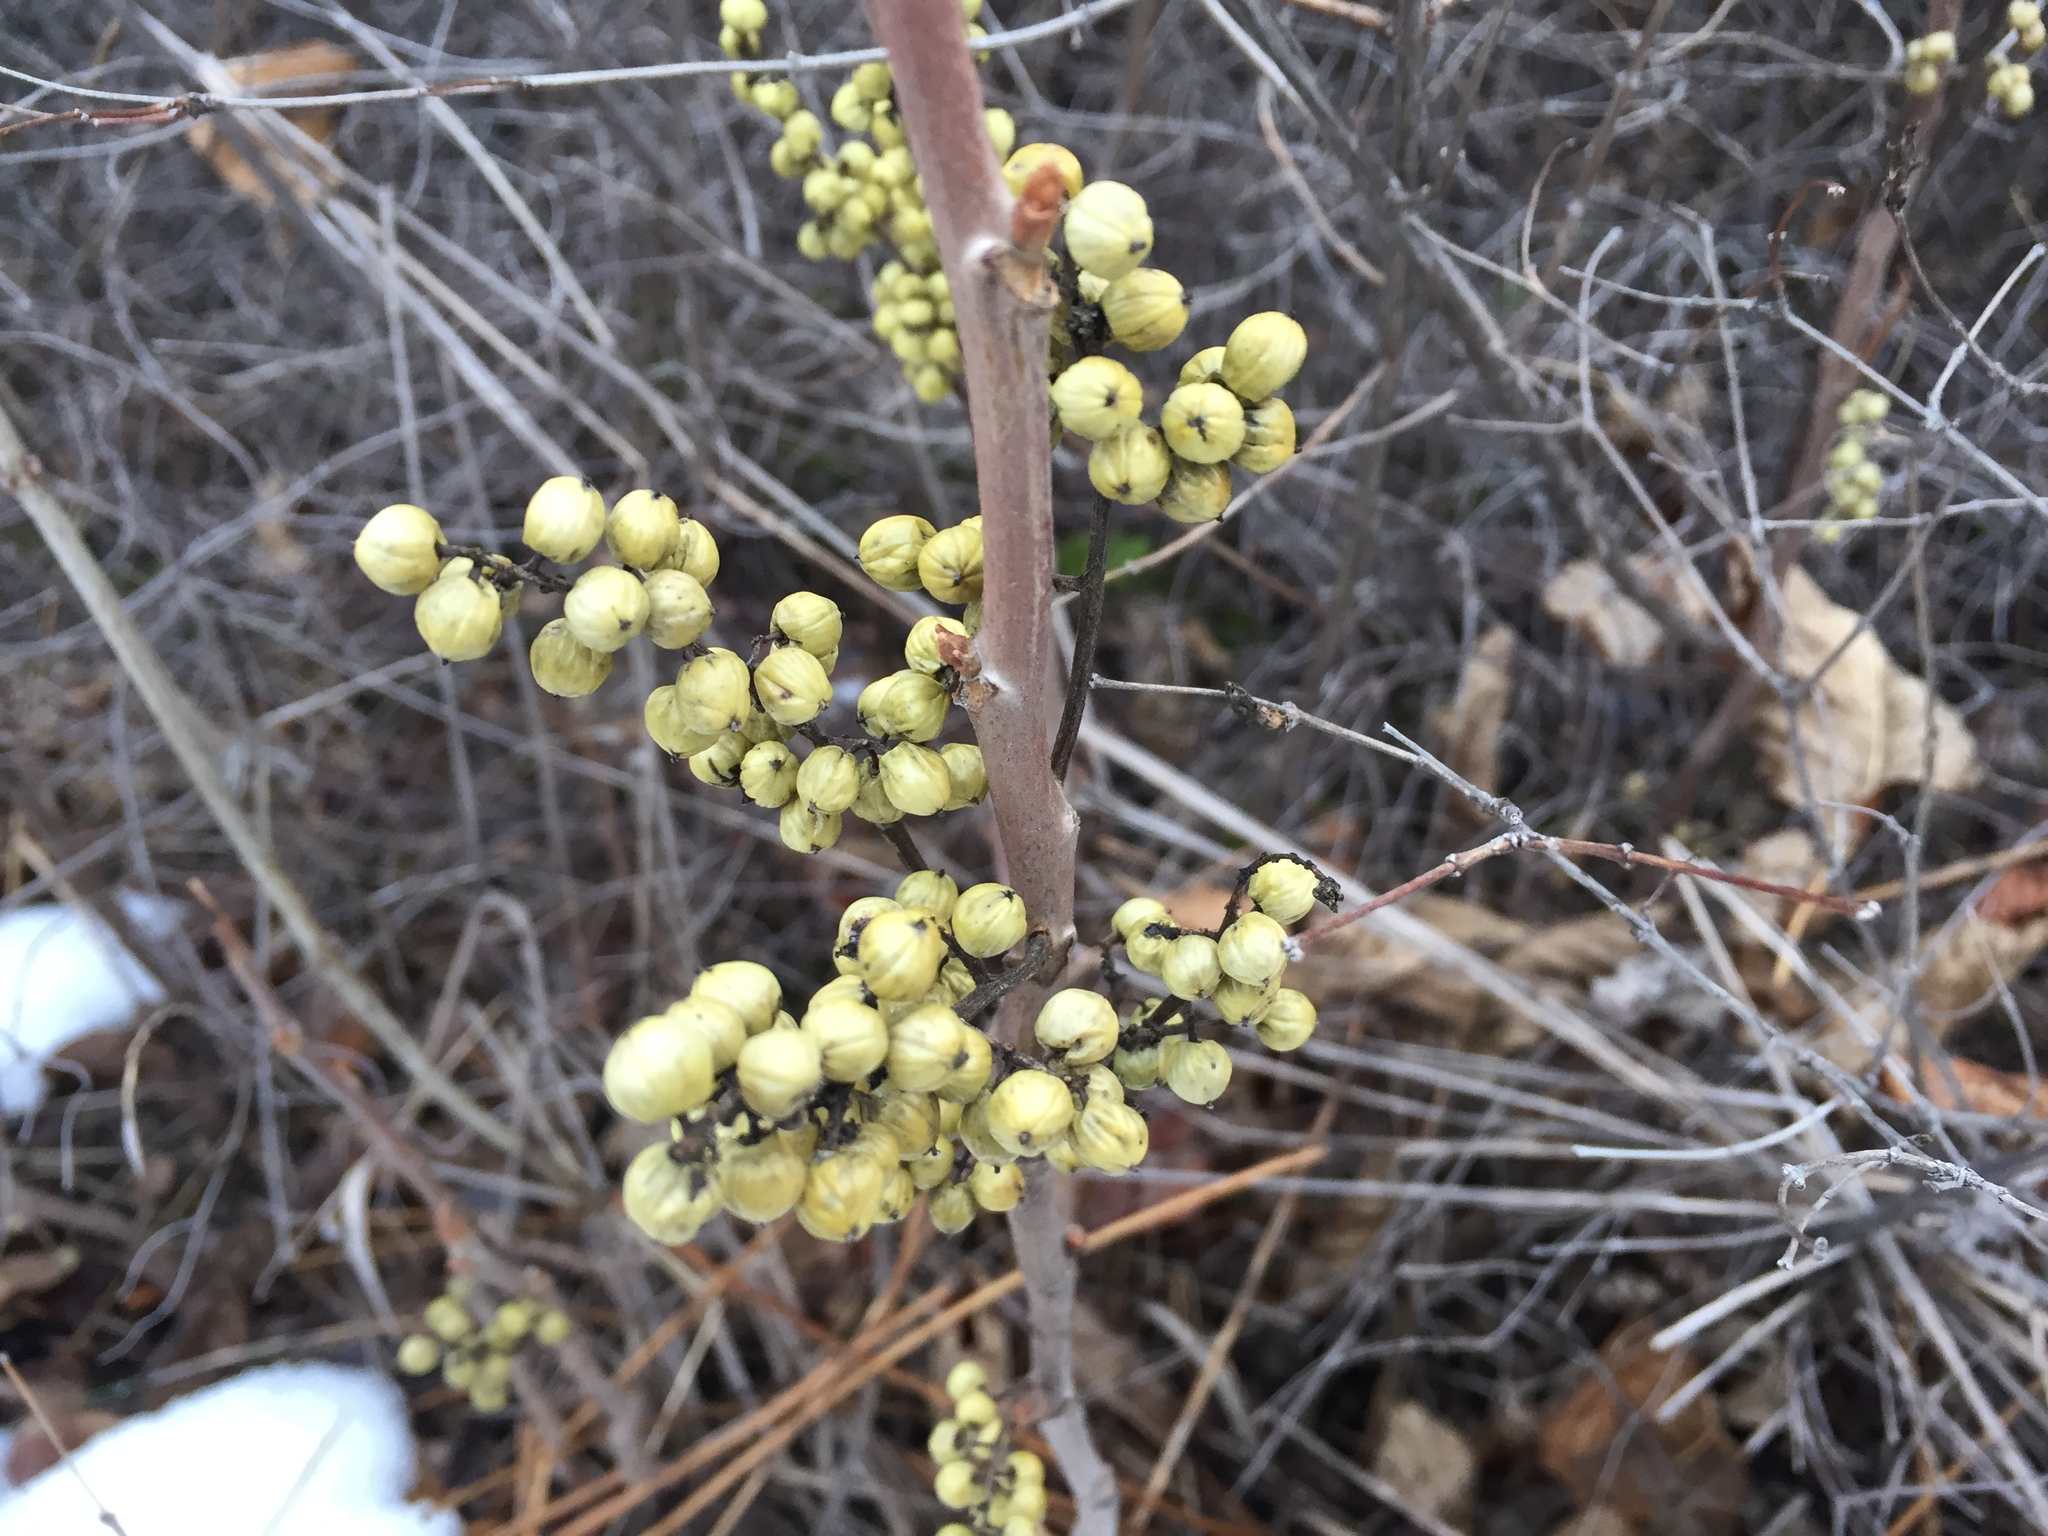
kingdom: Plantae
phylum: Tracheophyta
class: Magnoliopsida
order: Sapindales
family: Anacardiaceae
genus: Toxicodendron
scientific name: Toxicodendron rydbergii
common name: Rydberg's poison-ivy
